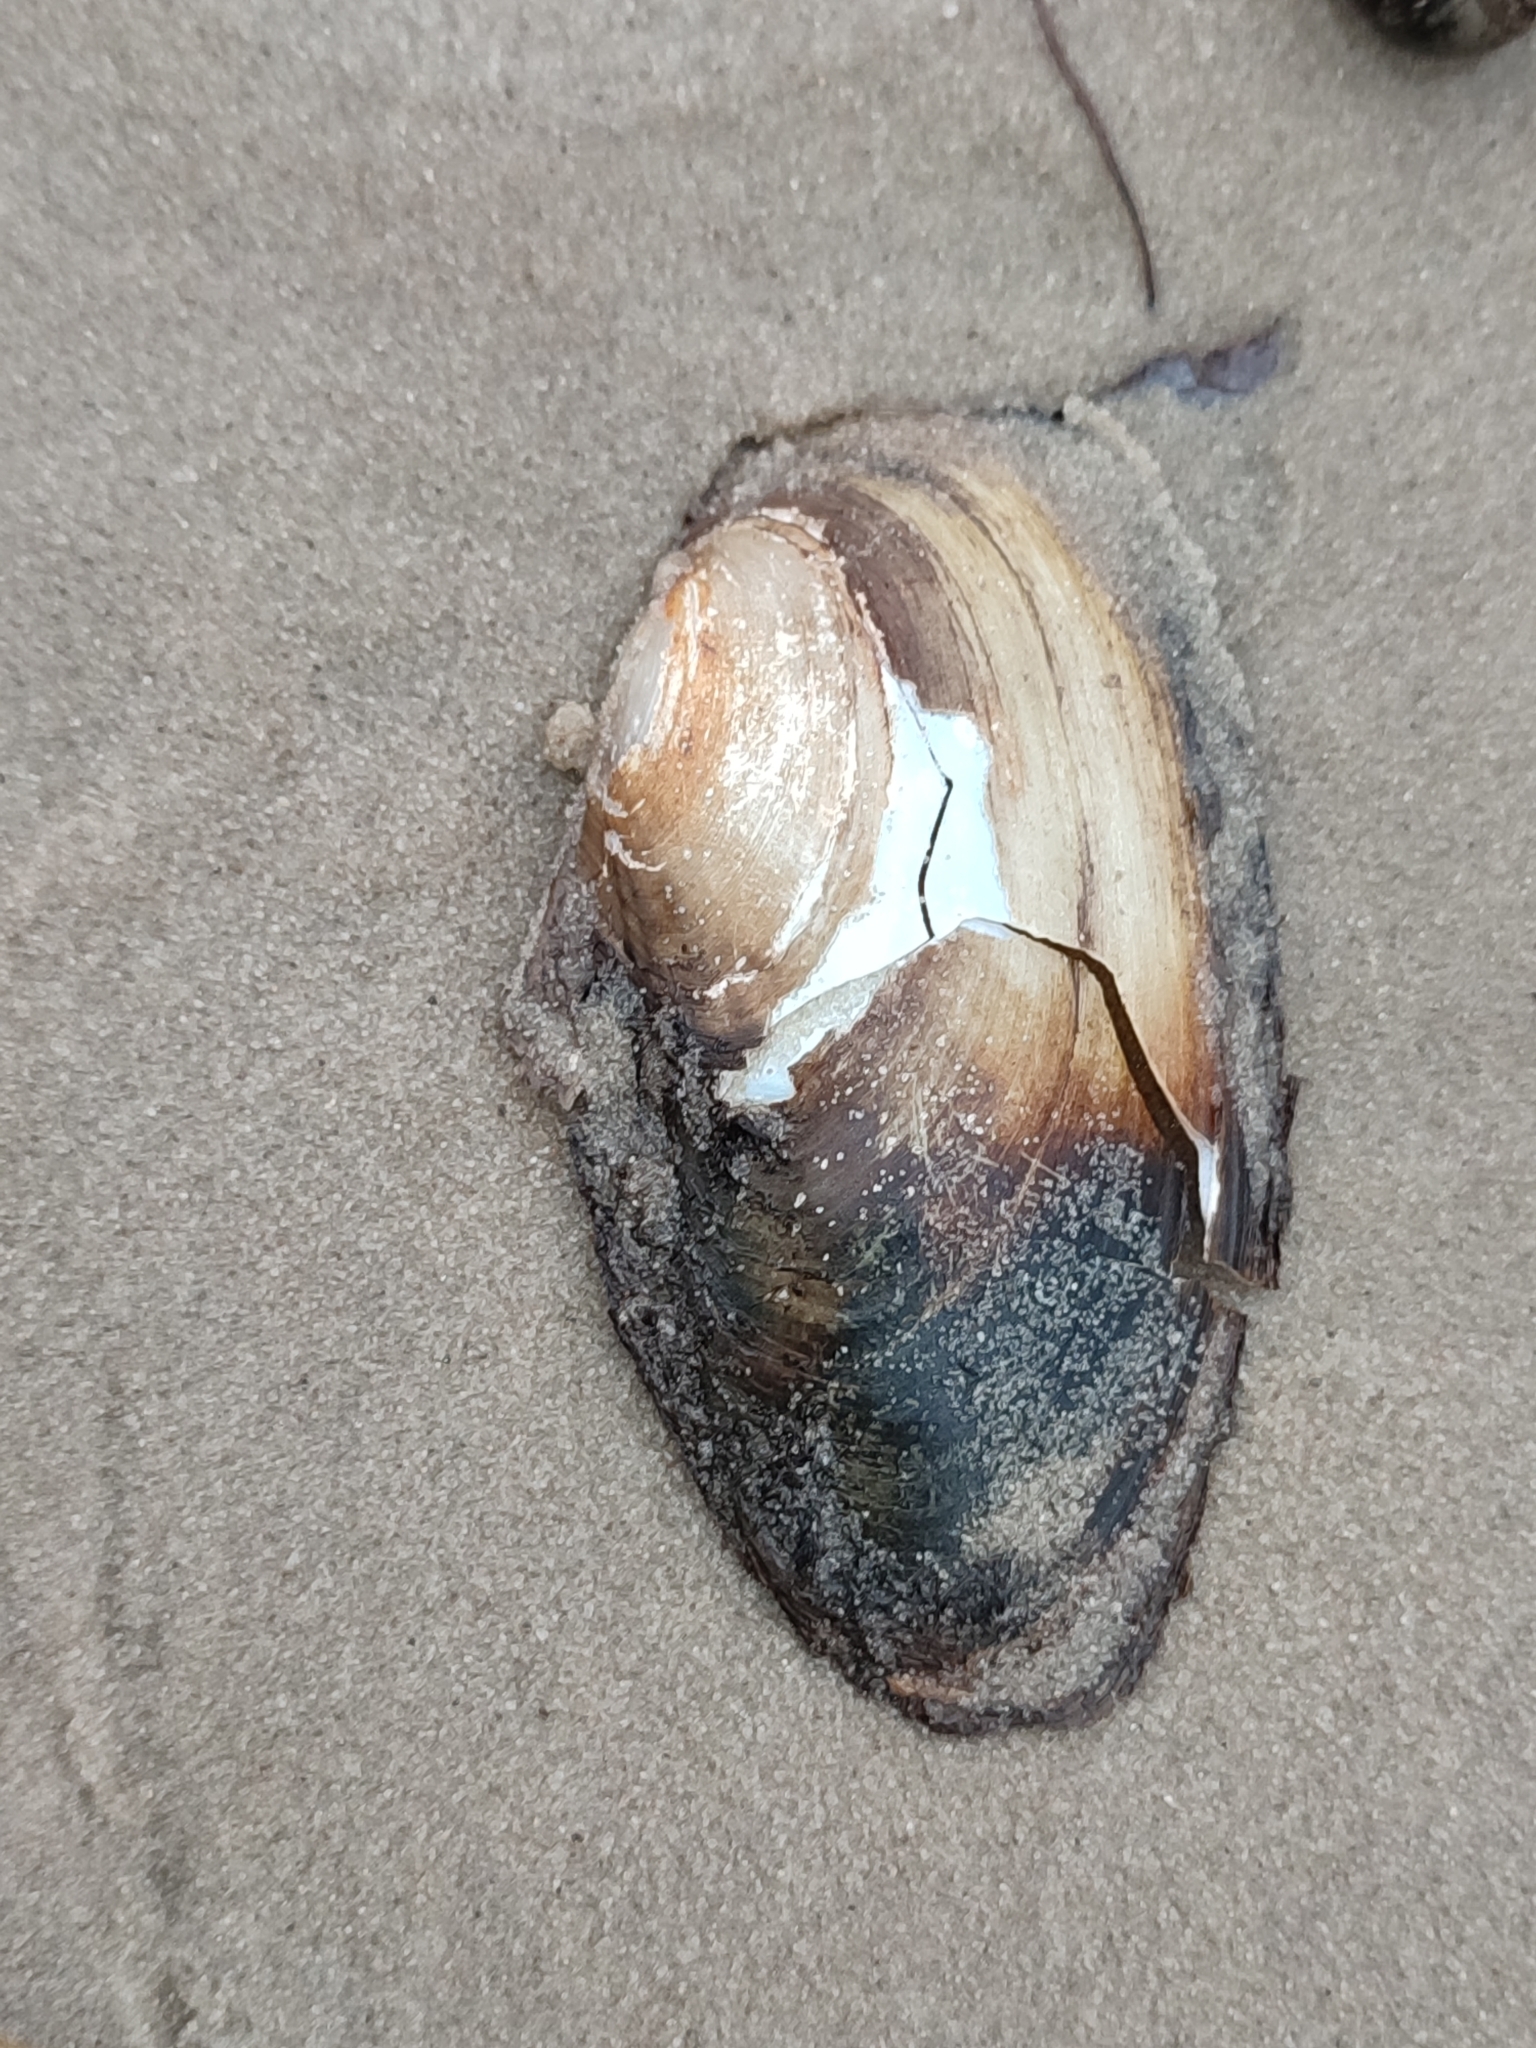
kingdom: Animalia
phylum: Mollusca
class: Bivalvia
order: Unionida
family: Unionidae
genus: Anodonta
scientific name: Anodonta anatina
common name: Duck mussel
